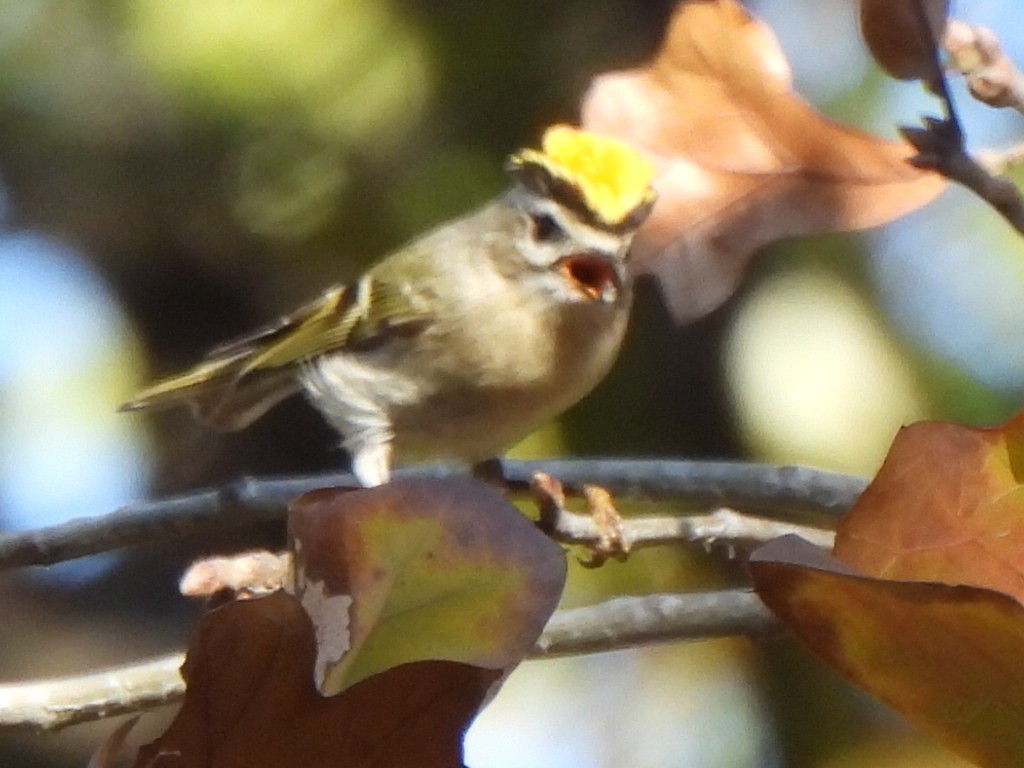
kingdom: Animalia
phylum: Chordata
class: Aves
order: Passeriformes
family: Regulidae
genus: Regulus
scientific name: Regulus satrapa
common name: Golden-crowned kinglet
